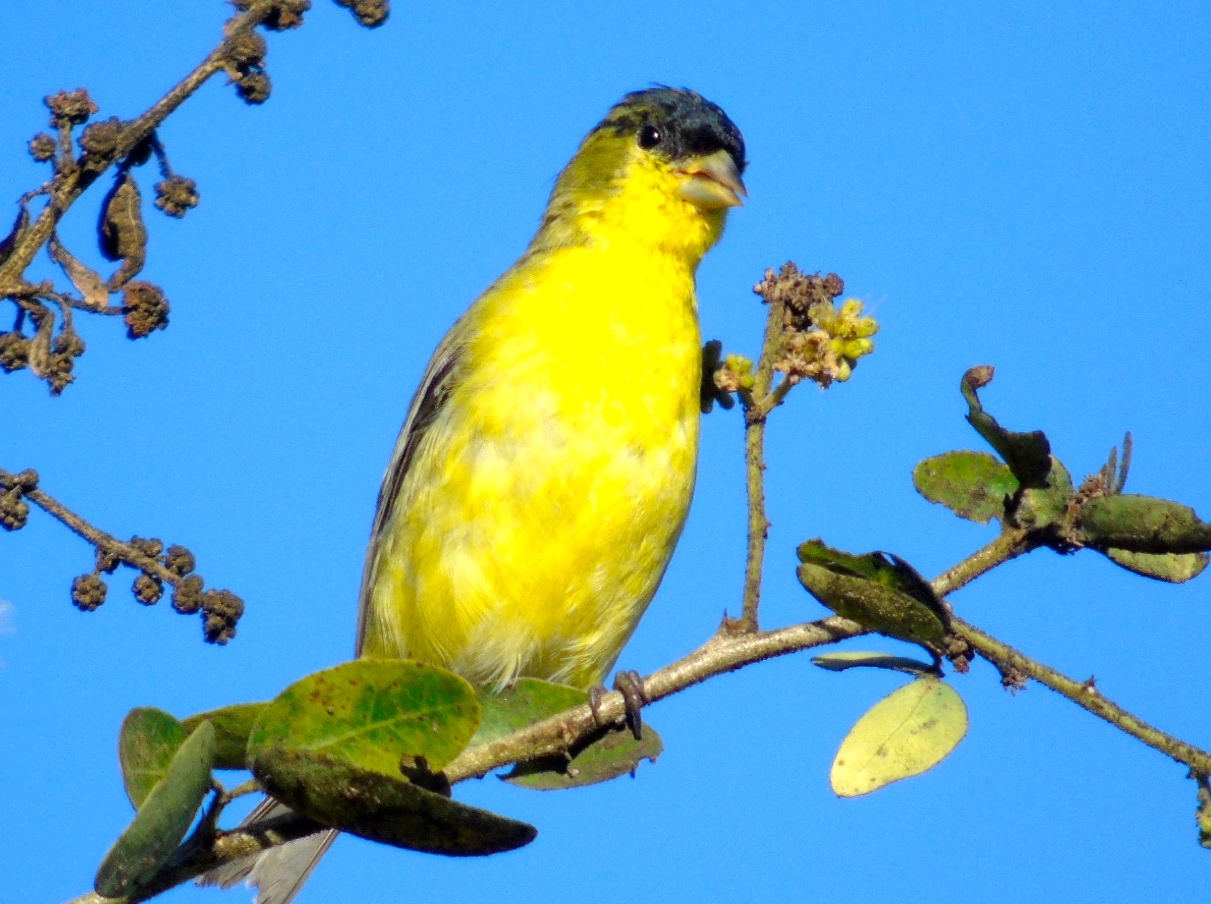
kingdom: Animalia
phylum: Chordata
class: Aves
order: Passeriformes
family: Fringillidae
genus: Spinus
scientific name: Spinus psaltria
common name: Lesser goldfinch
